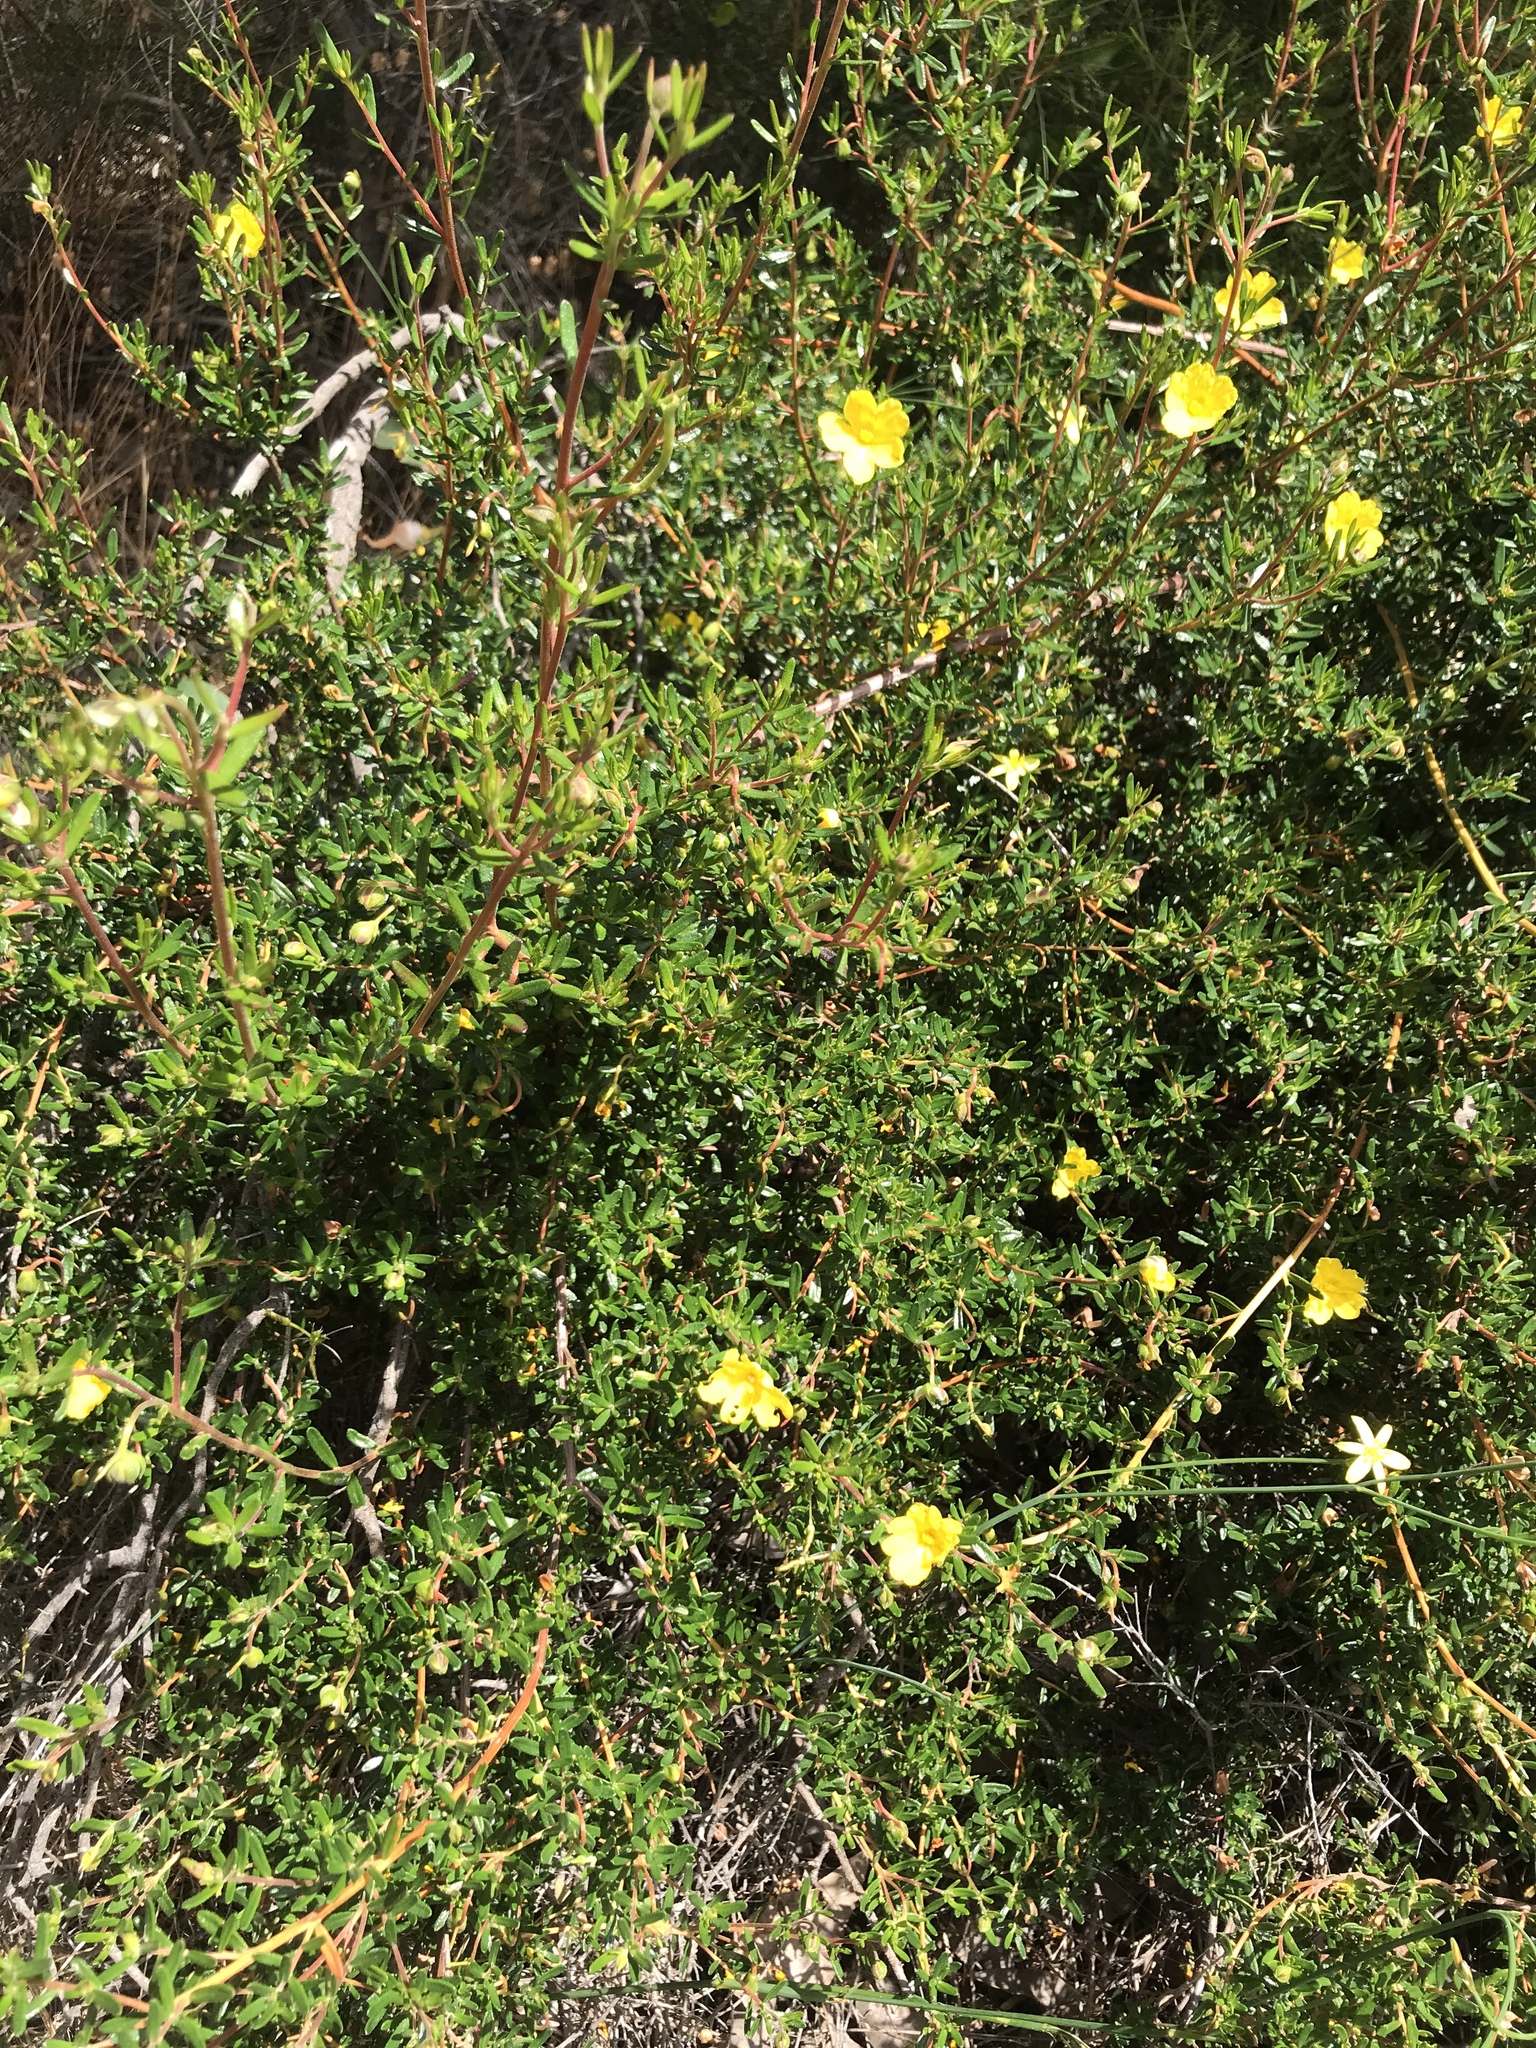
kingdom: Plantae
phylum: Tracheophyta
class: Magnoliopsida
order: Dilleniales
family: Dilleniaceae
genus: Hibbertia
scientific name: Hibbertia hypericoides
